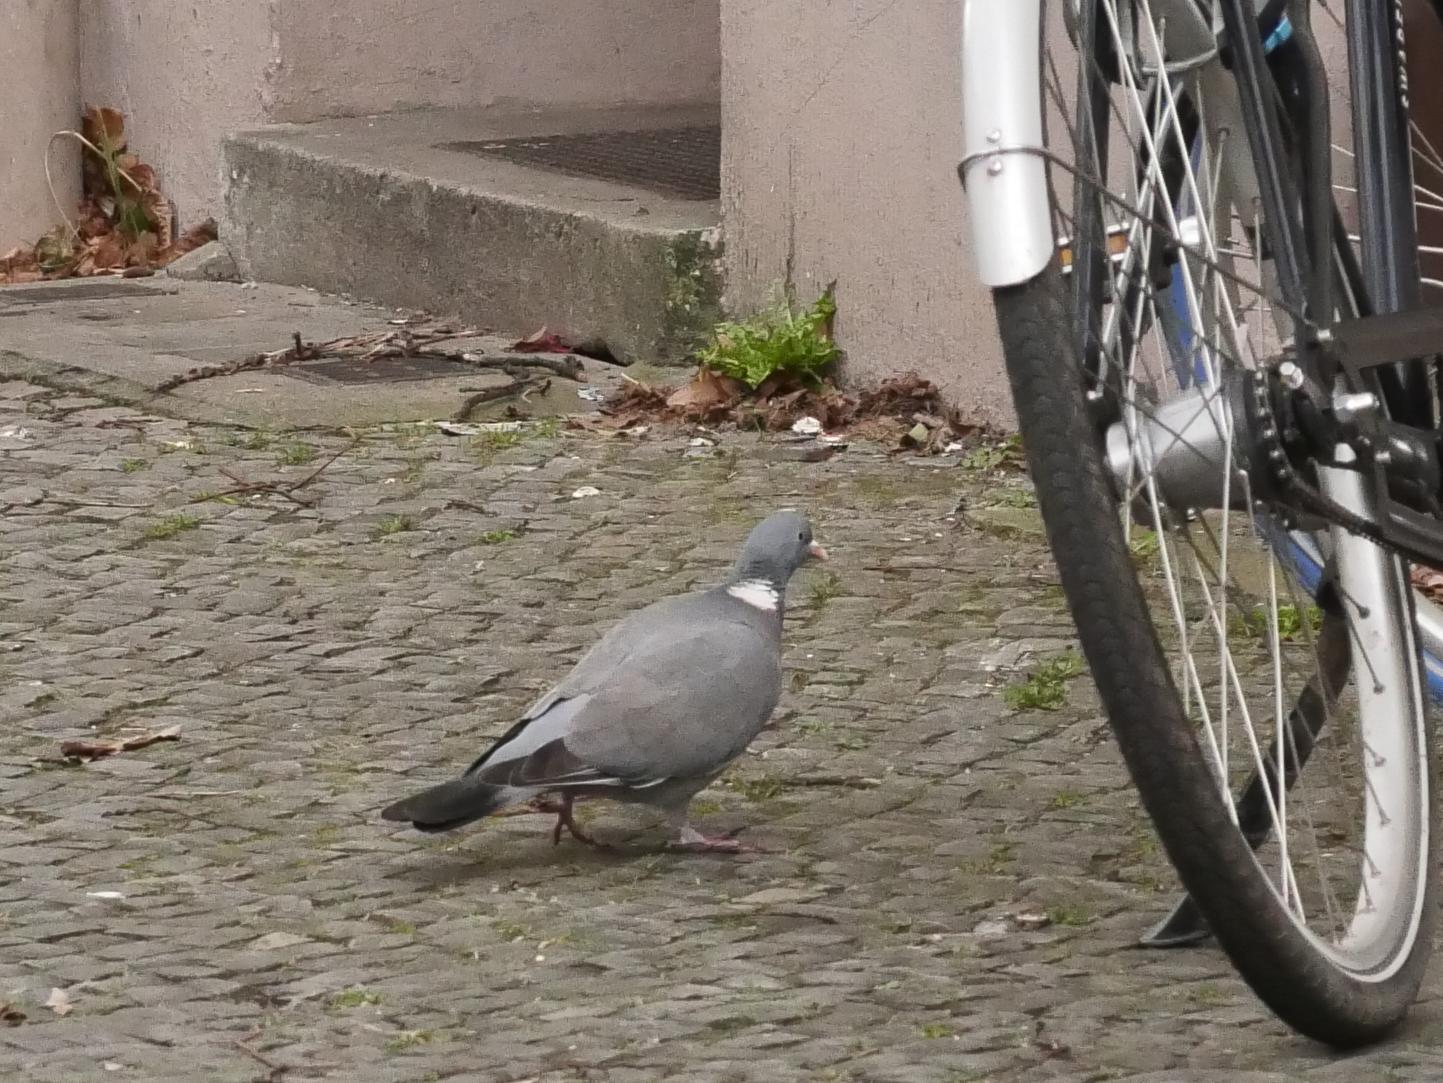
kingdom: Animalia
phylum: Chordata
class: Aves
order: Columbiformes
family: Columbidae
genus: Columba
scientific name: Columba palumbus
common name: Common wood pigeon
